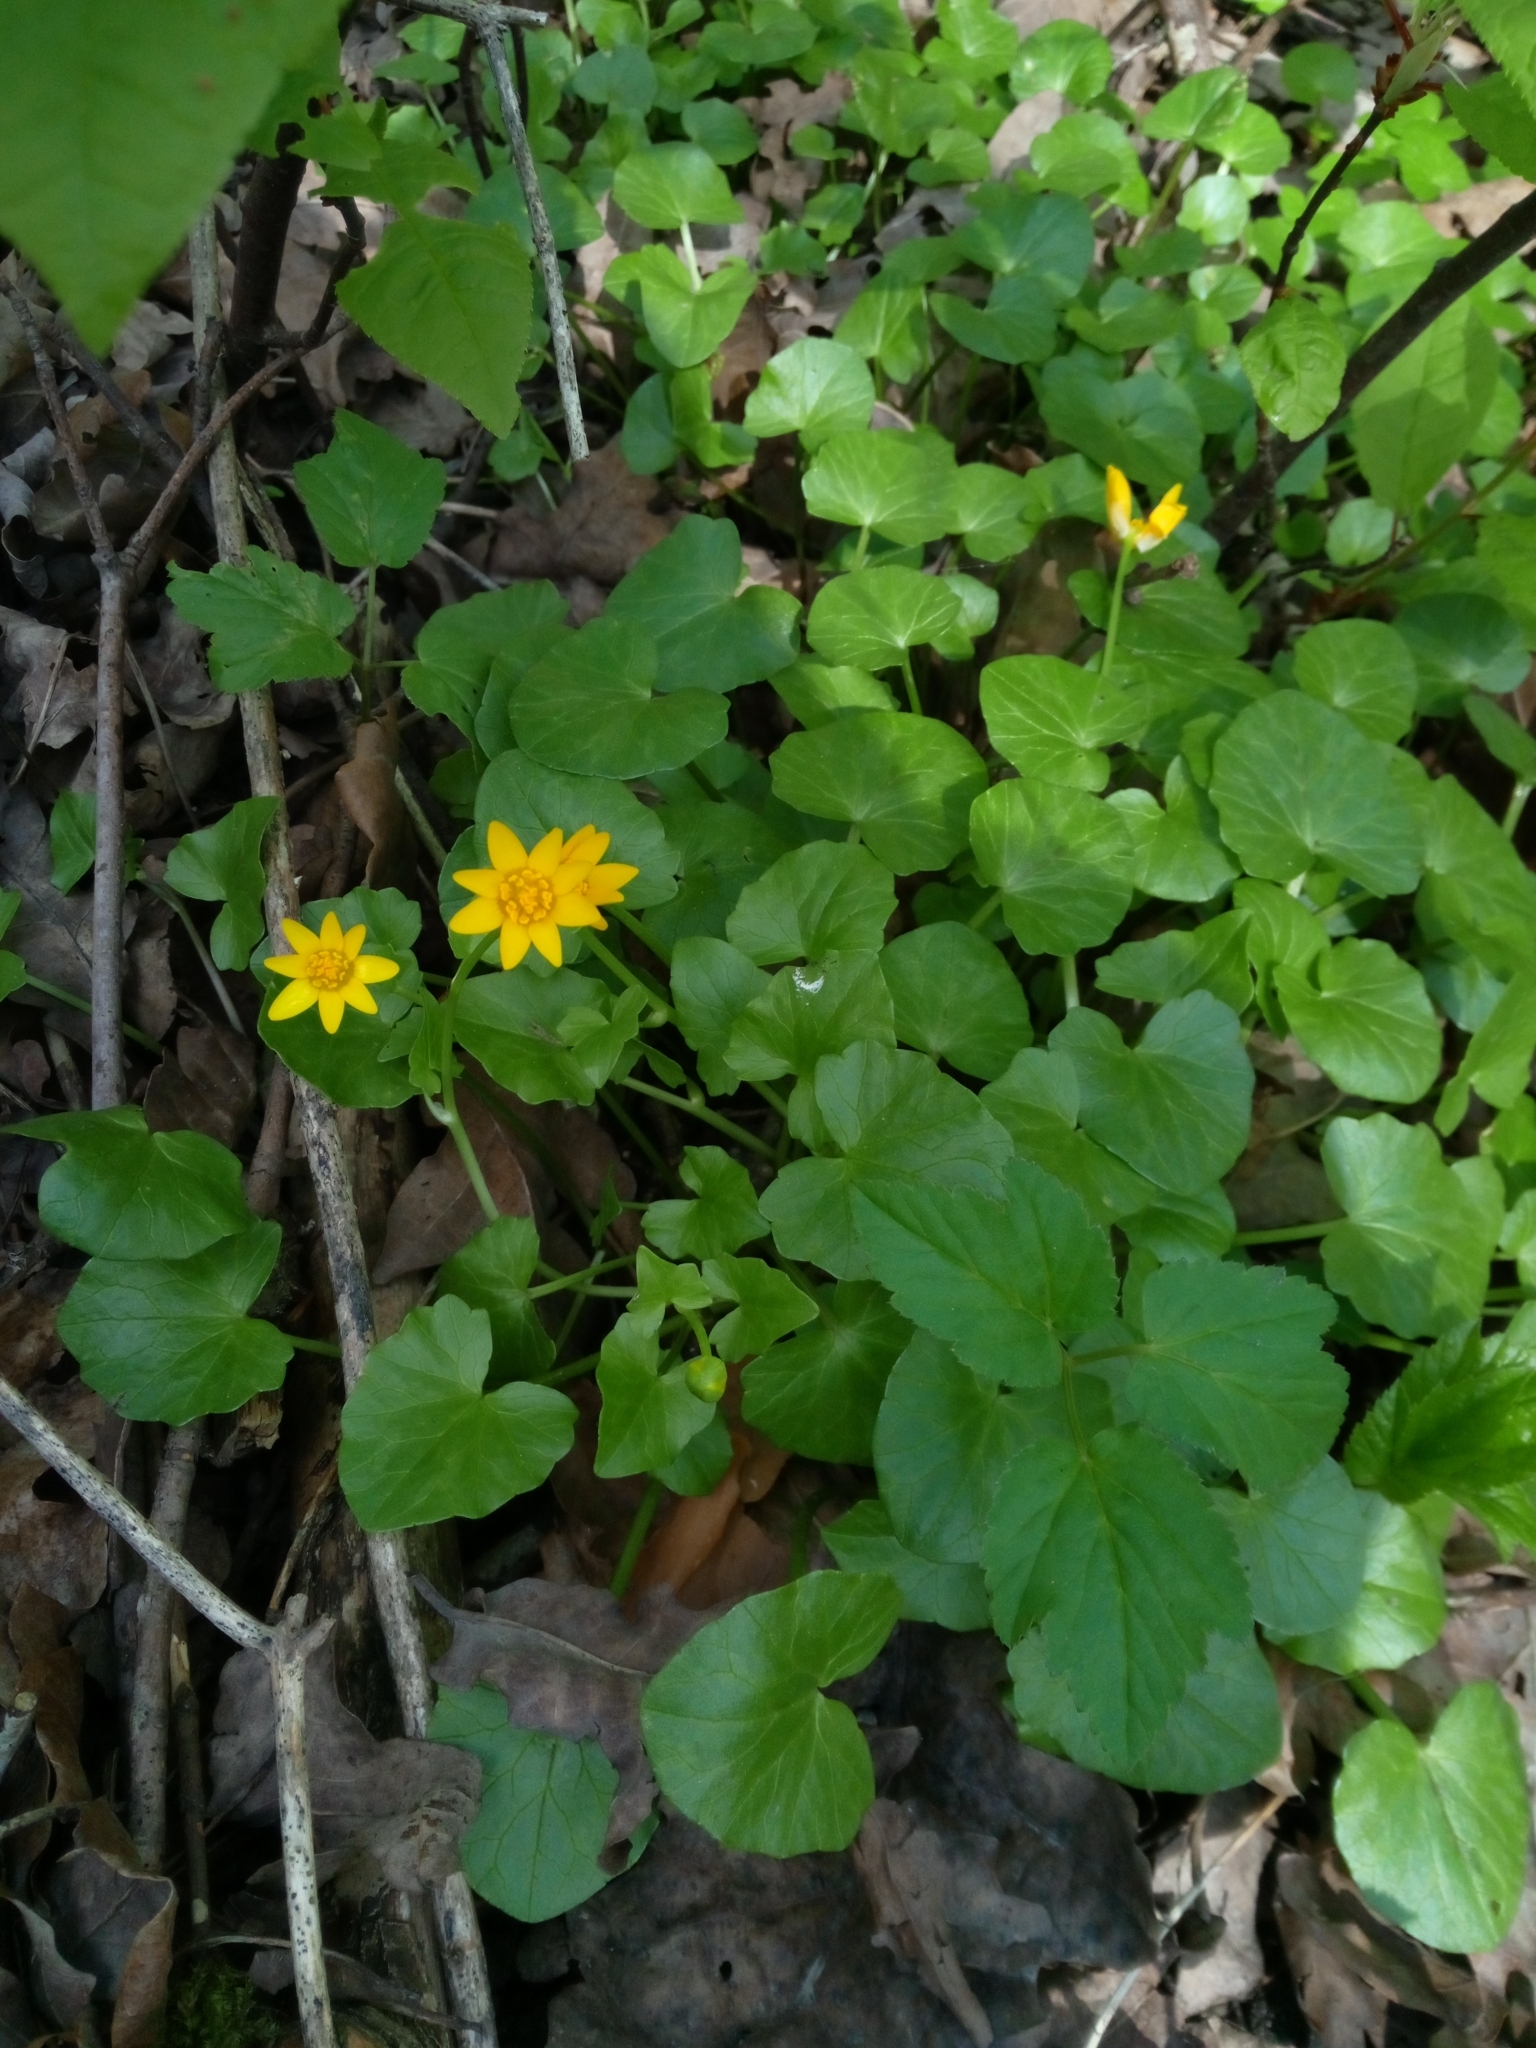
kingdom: Plantae
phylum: Tracheophyta
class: Magnoliopsida
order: Ranunculales
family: Ranunculaceae
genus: Ficaria
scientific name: Ficaria verna
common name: Lesser celandine
